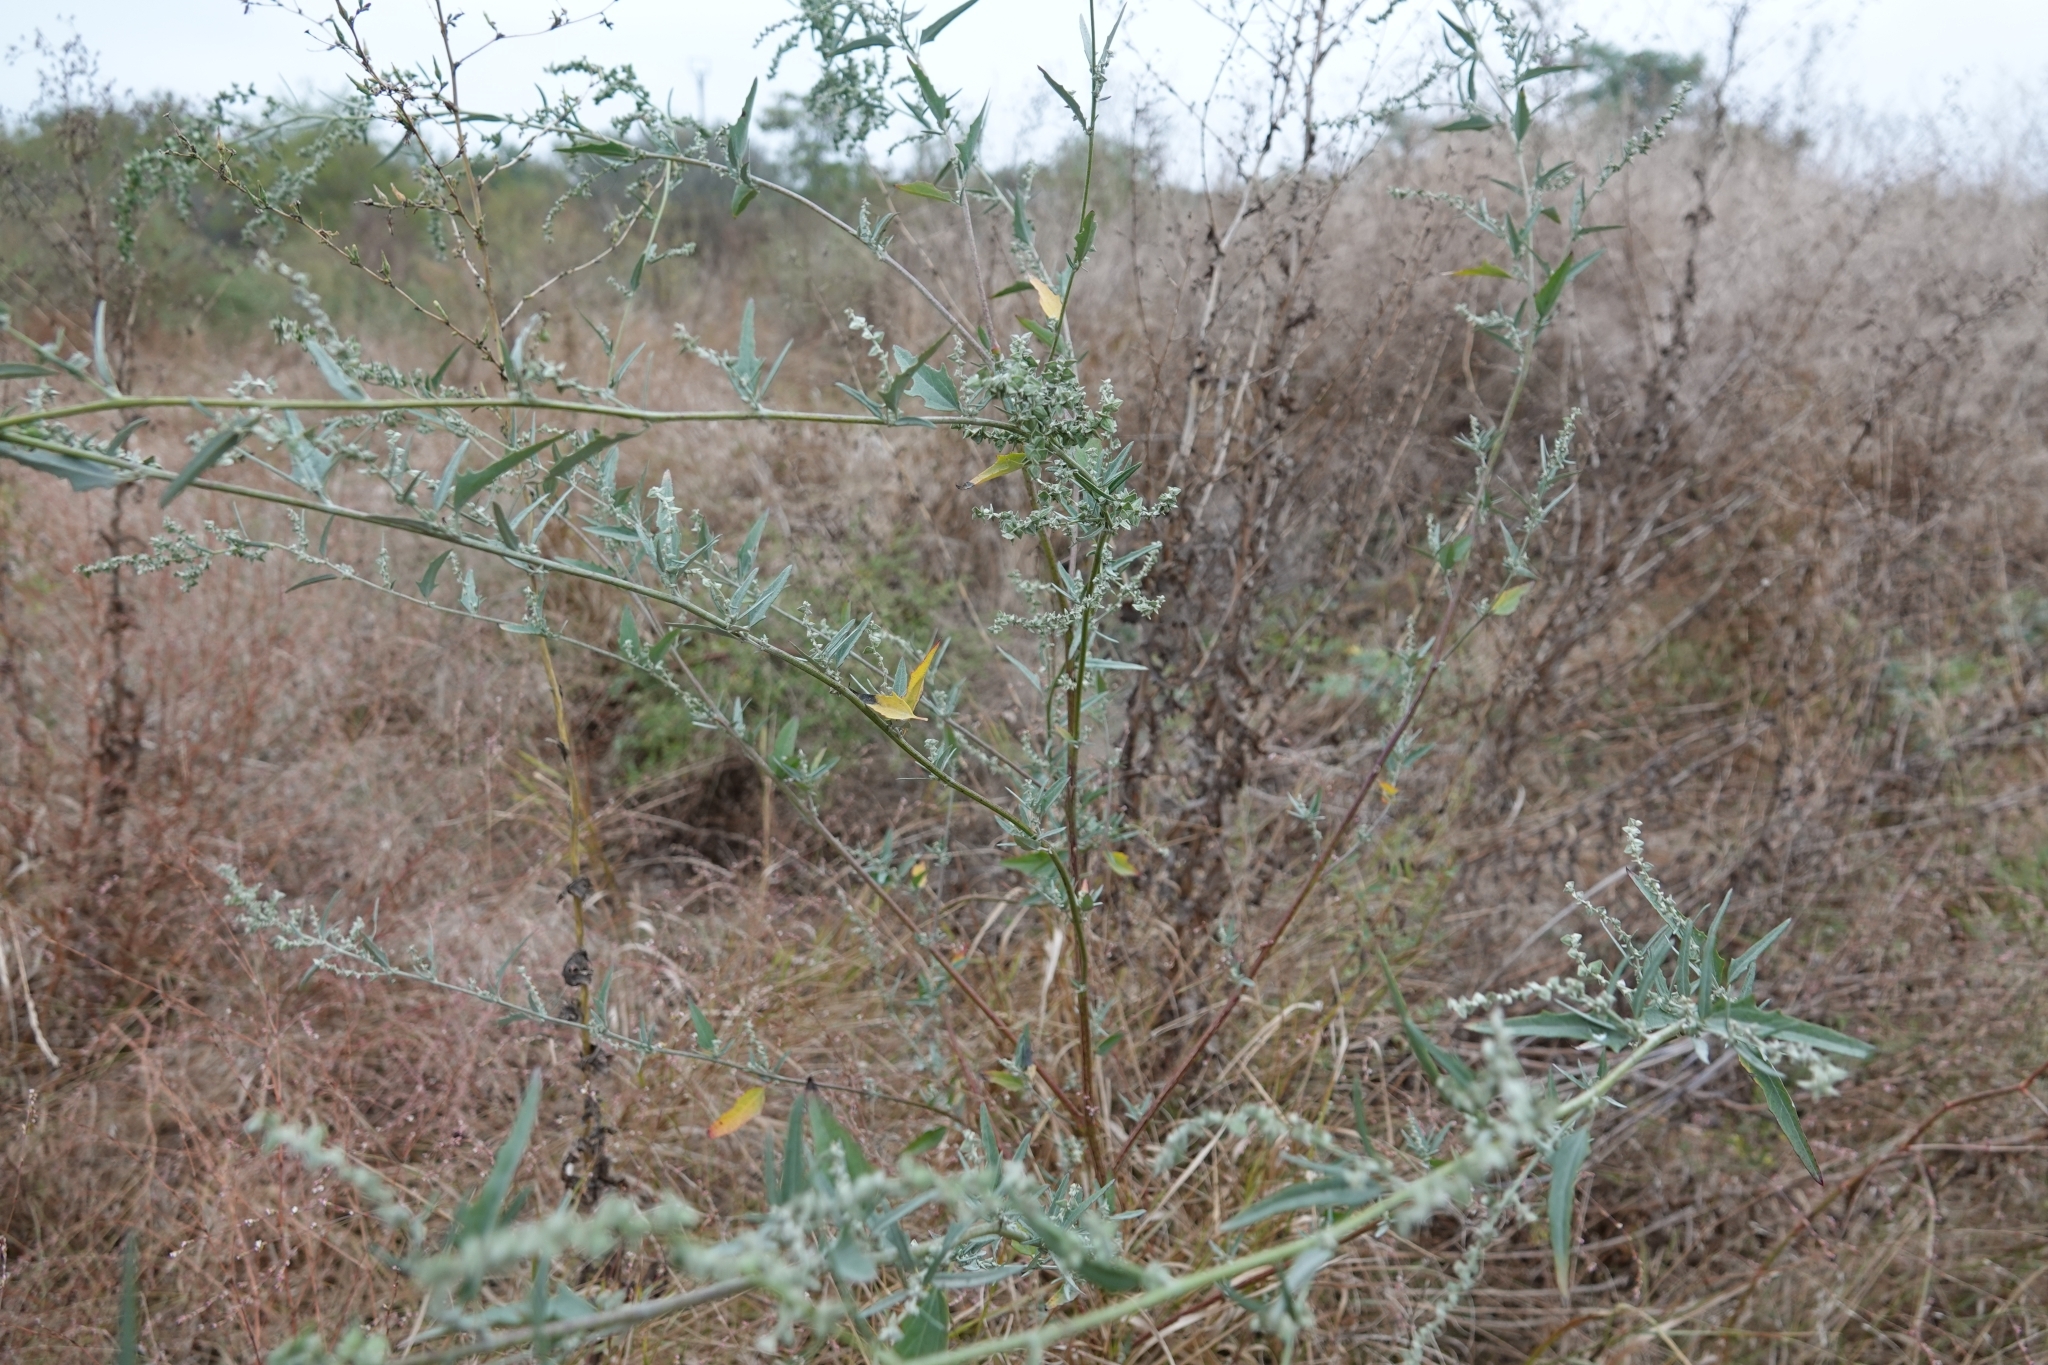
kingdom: Plantae
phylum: Tracheophyta
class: Magnoliopsida
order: Caryophyllales
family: Amaranthaceae
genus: Atriplex
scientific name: Atriplex micrantha
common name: Twoscale saltbush
